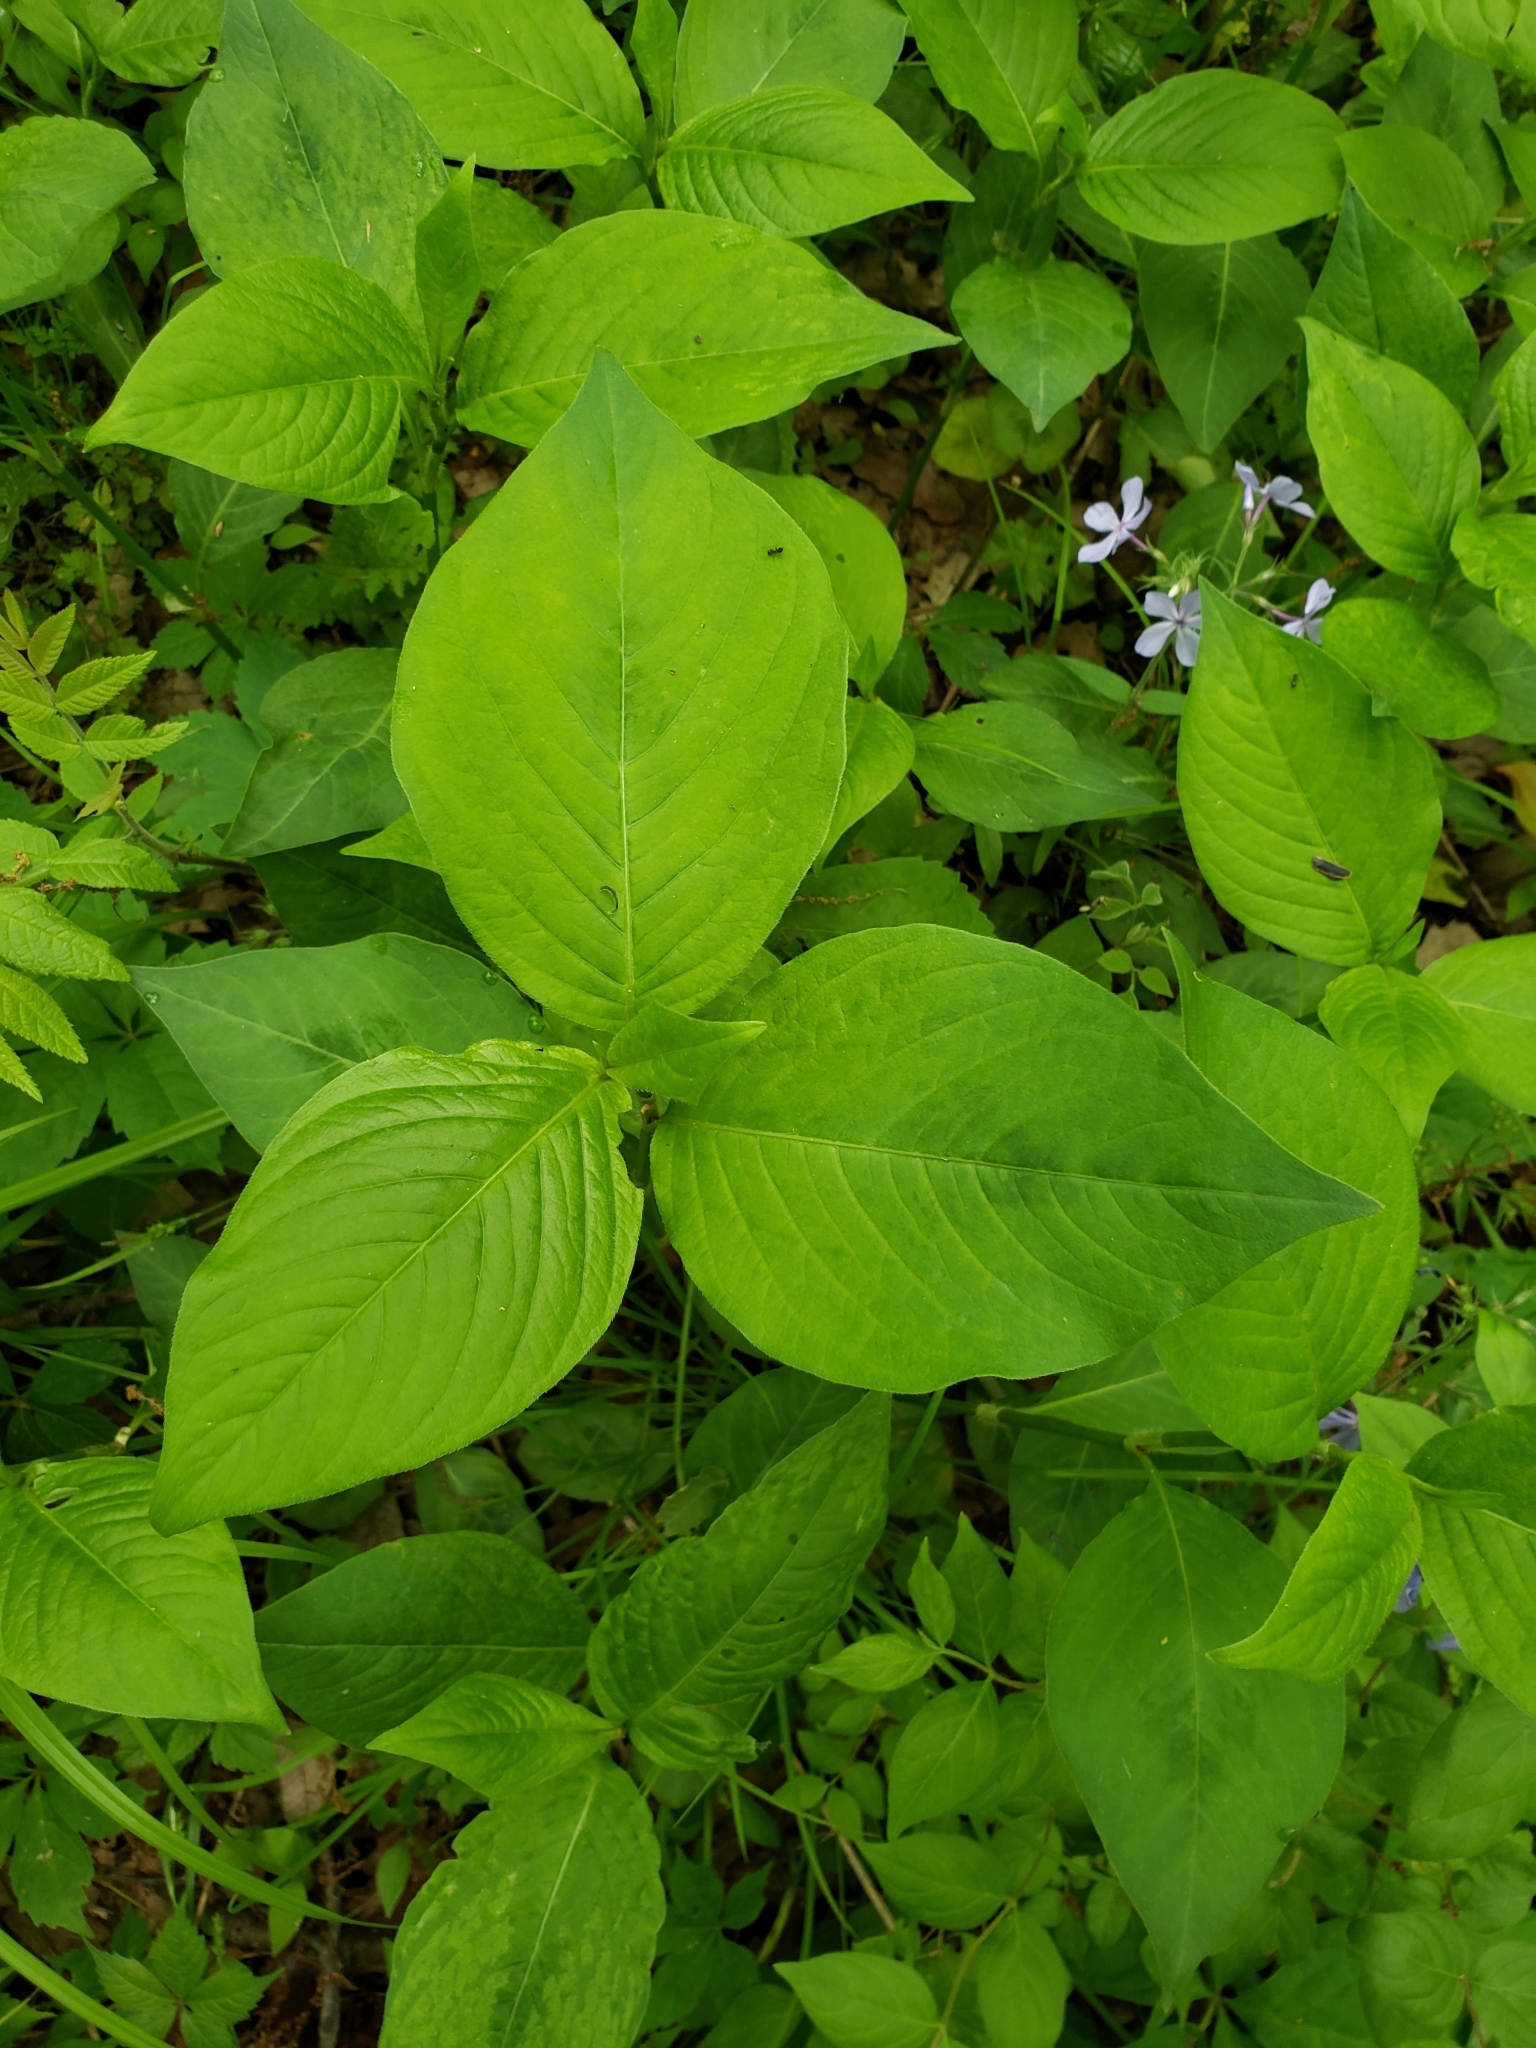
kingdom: Plantae
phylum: Tracheophyta
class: Magnoliopsida
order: Caryophyllales
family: Polygonaceae
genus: Persicaria
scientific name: Persicaria virginiana
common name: Jumpseed
